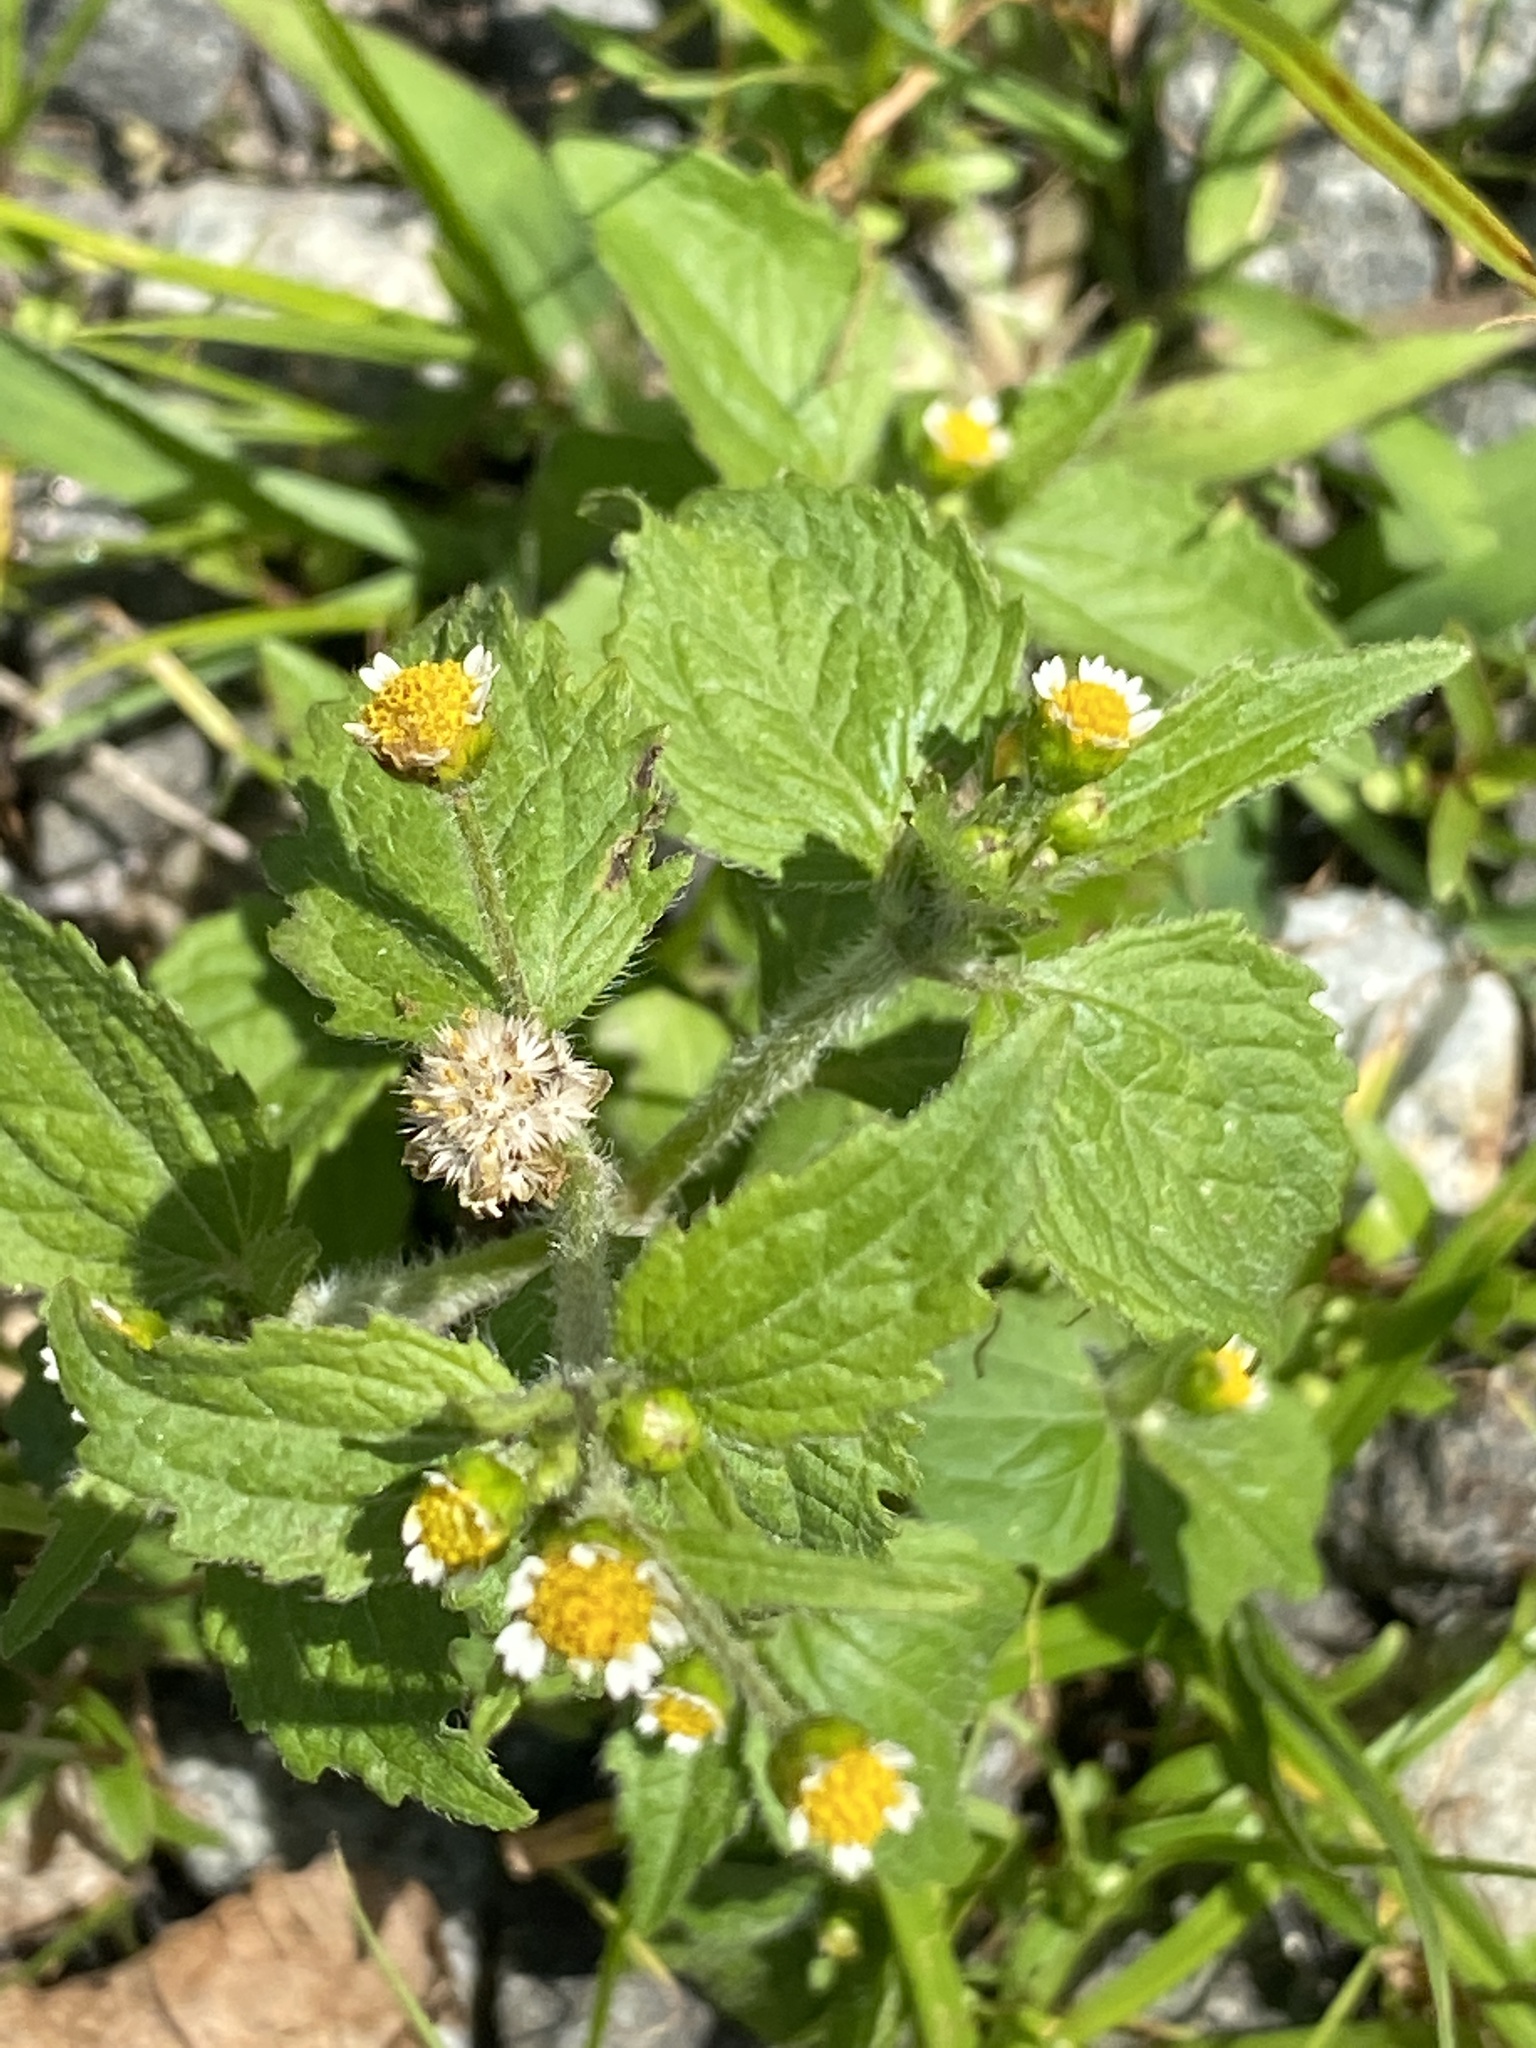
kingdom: Plantae
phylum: Tracheophyta
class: Magnoliopsida
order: Asterales
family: Asteraceae
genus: Galinsoga
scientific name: Galinsoga quadriradiata
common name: Shaggy soldier
